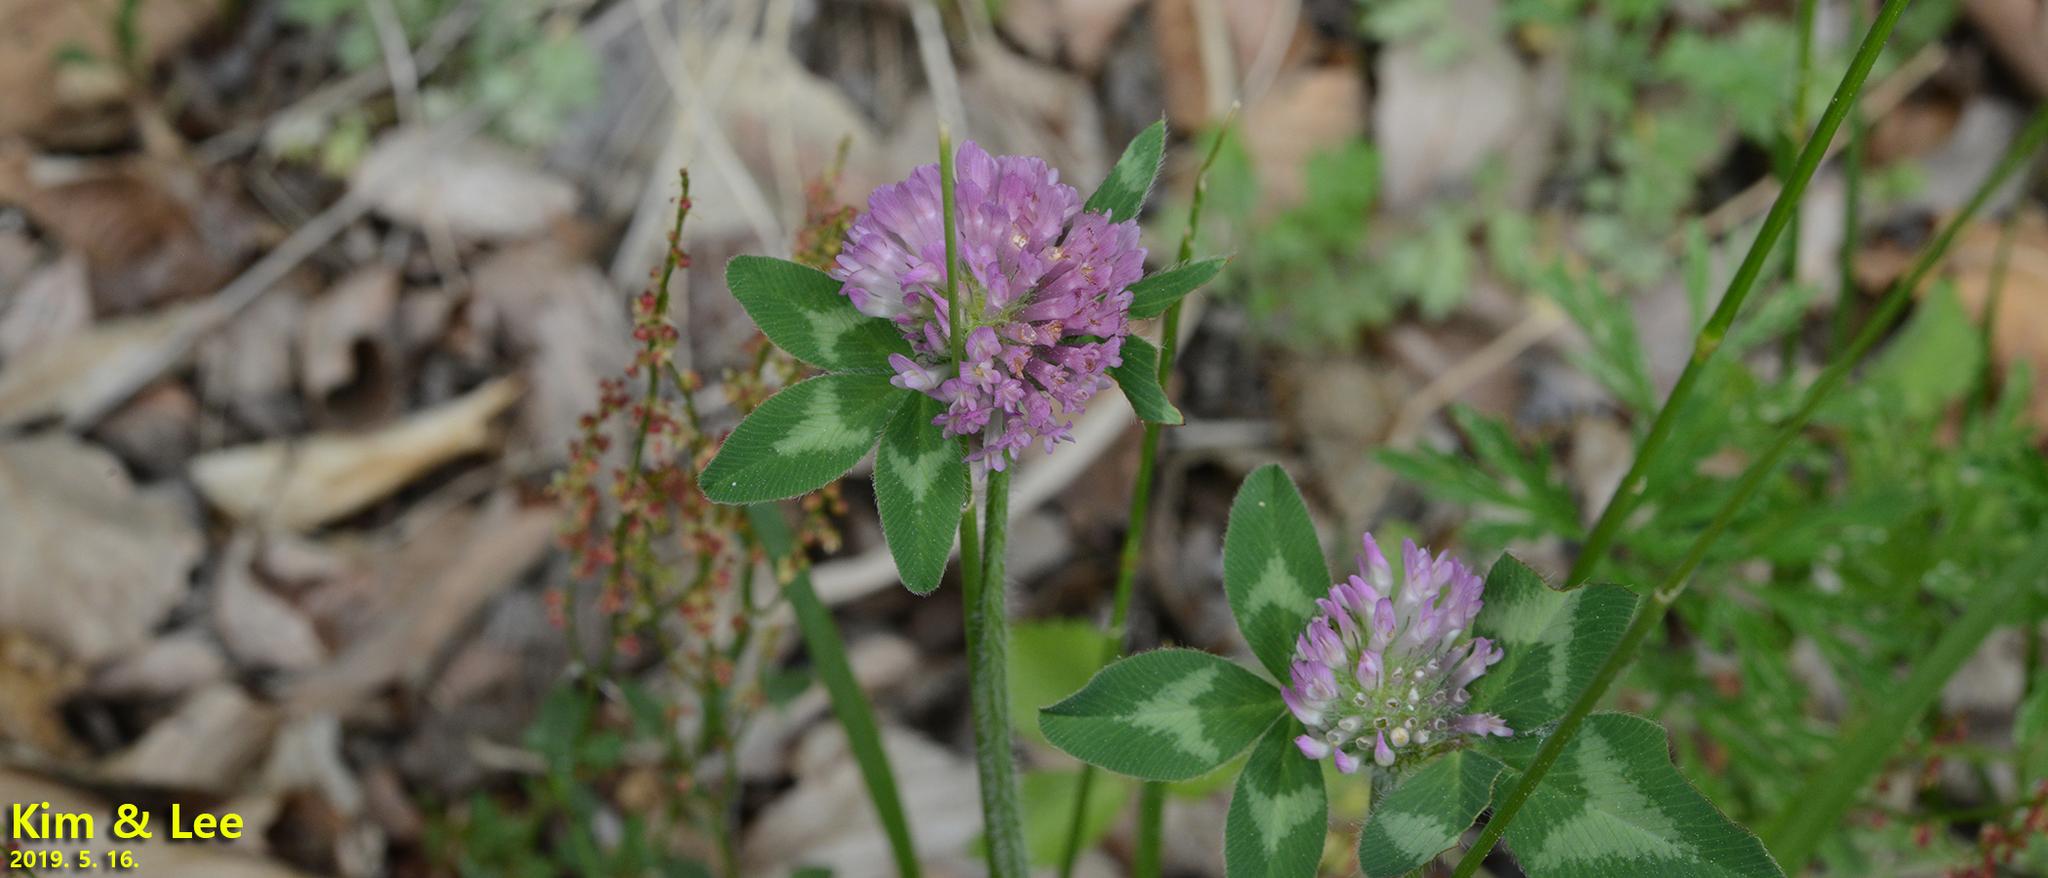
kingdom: Plantae
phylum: Tracheophyta
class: Magnoliopsida
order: Fabales
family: Fabaceae
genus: Trifolium
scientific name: Trifolium pratense
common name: Red clover
